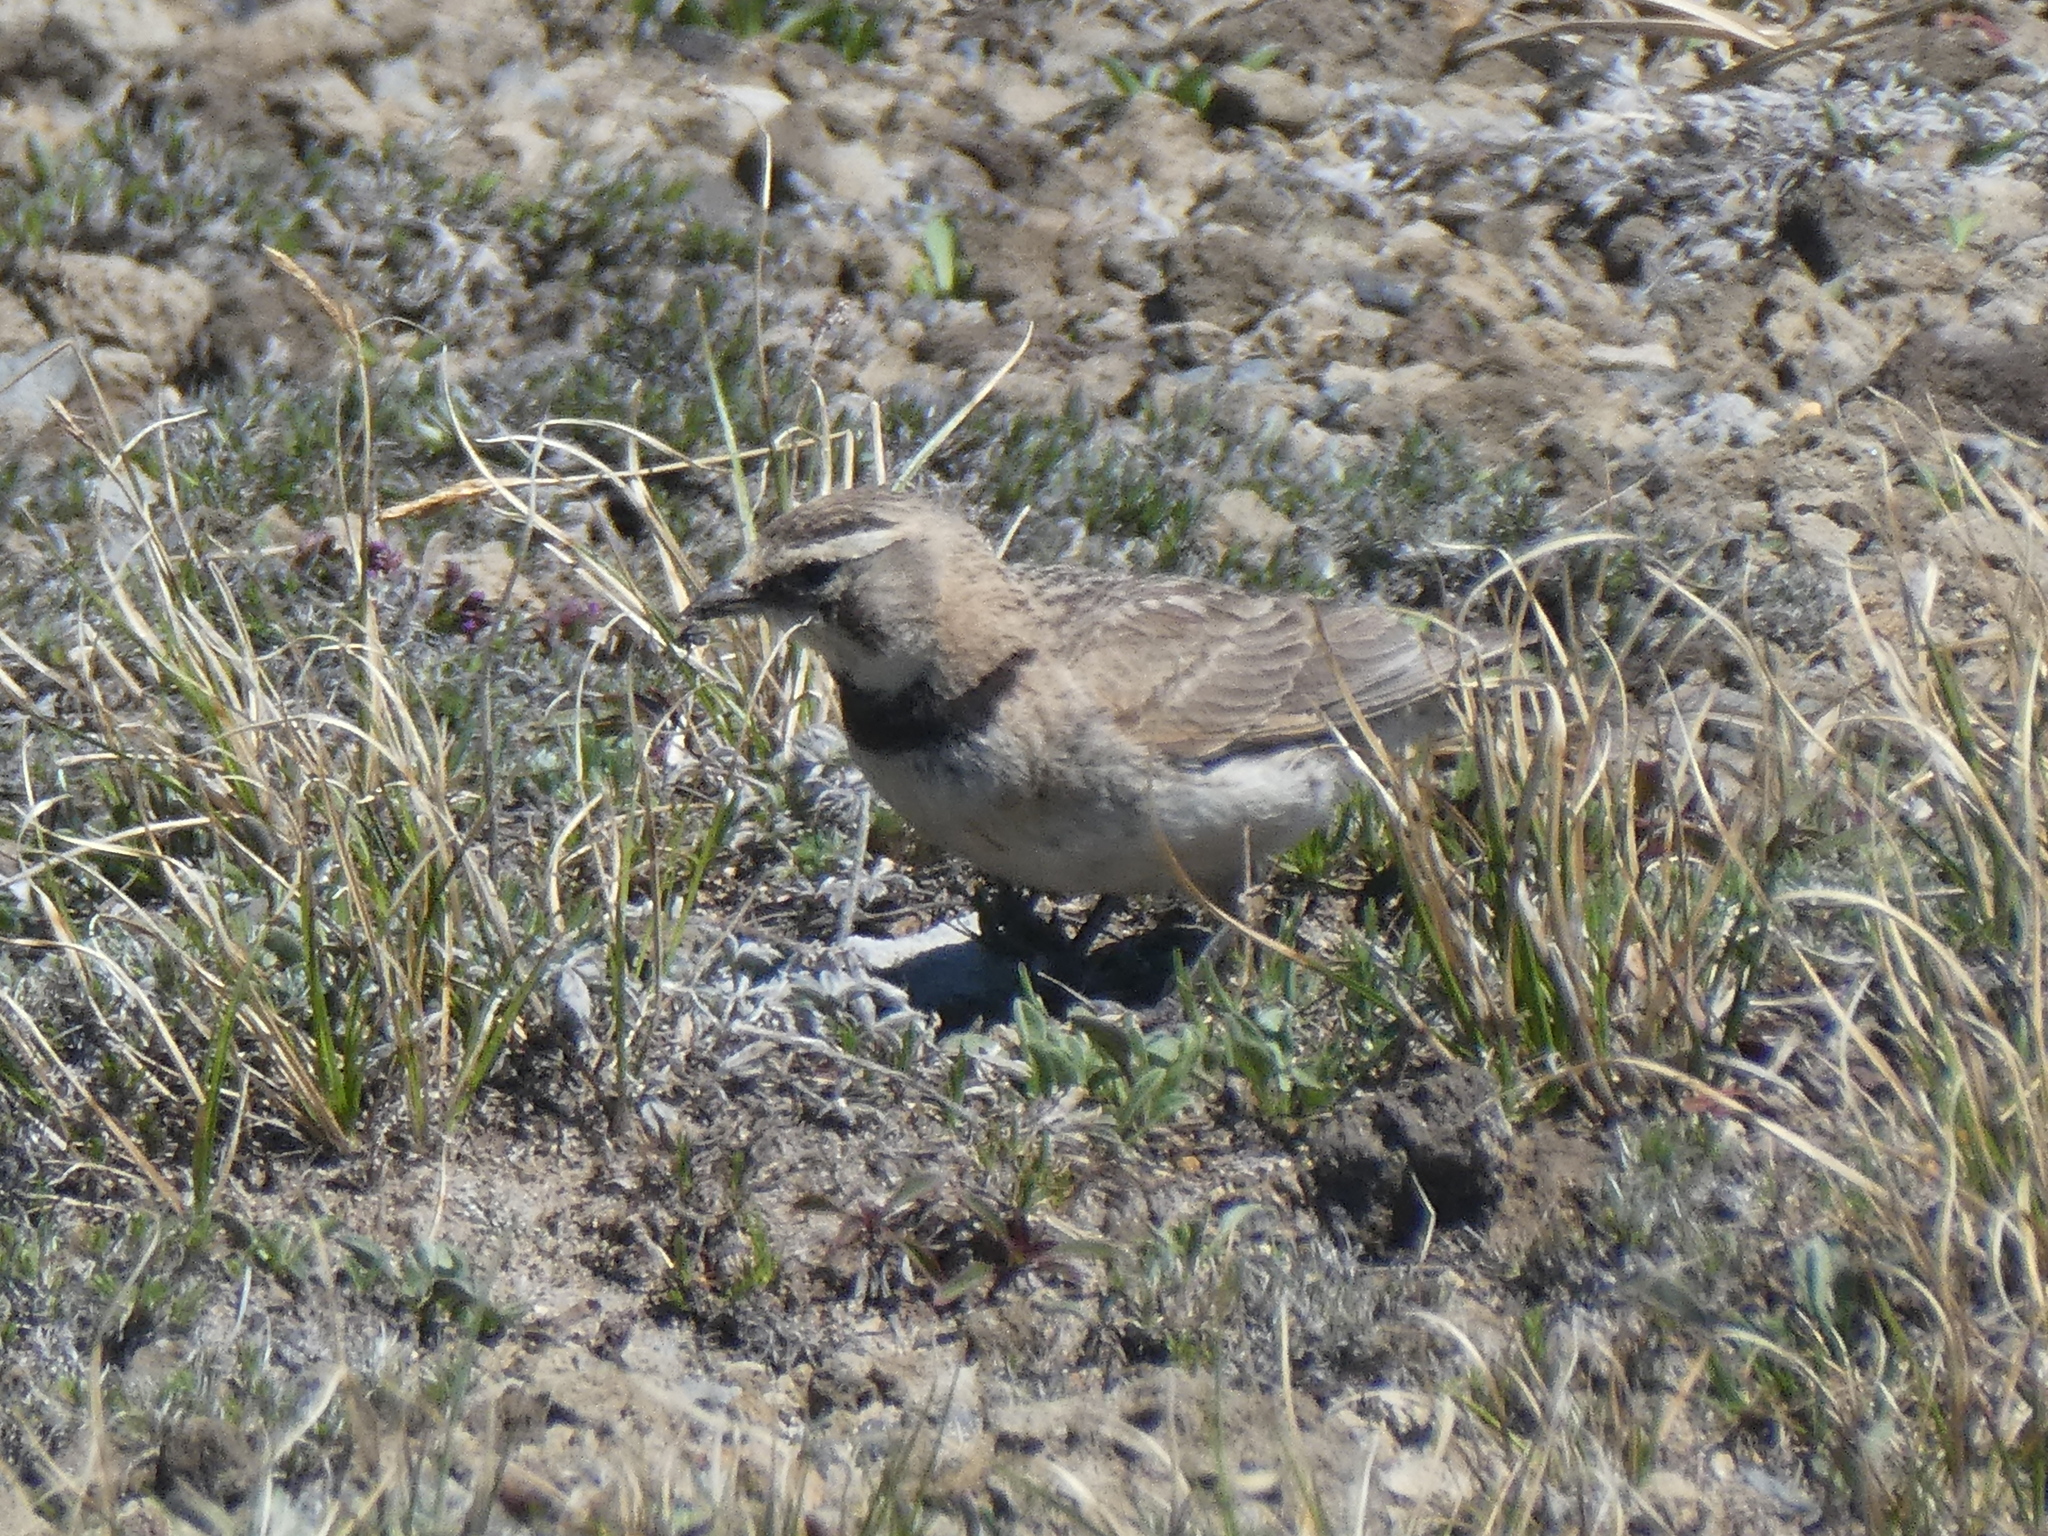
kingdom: Animalia
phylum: Chordata
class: Aves
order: Passeriformes
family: Alaudidae
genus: Eremophila
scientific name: Eremophila alpestris
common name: Horned lark
